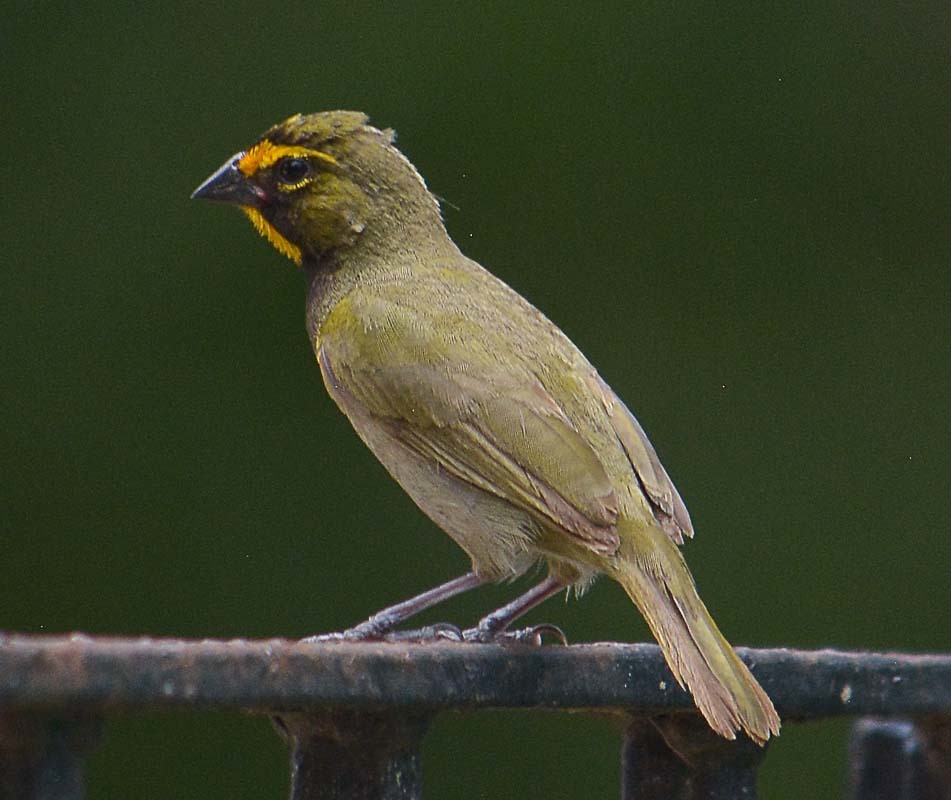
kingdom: Animalia
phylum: Chordata
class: Aves
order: Passeriformes
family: Thraupidae
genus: Tiaris
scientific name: Tiaris olivaceus
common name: Yellow-faced grassquit
